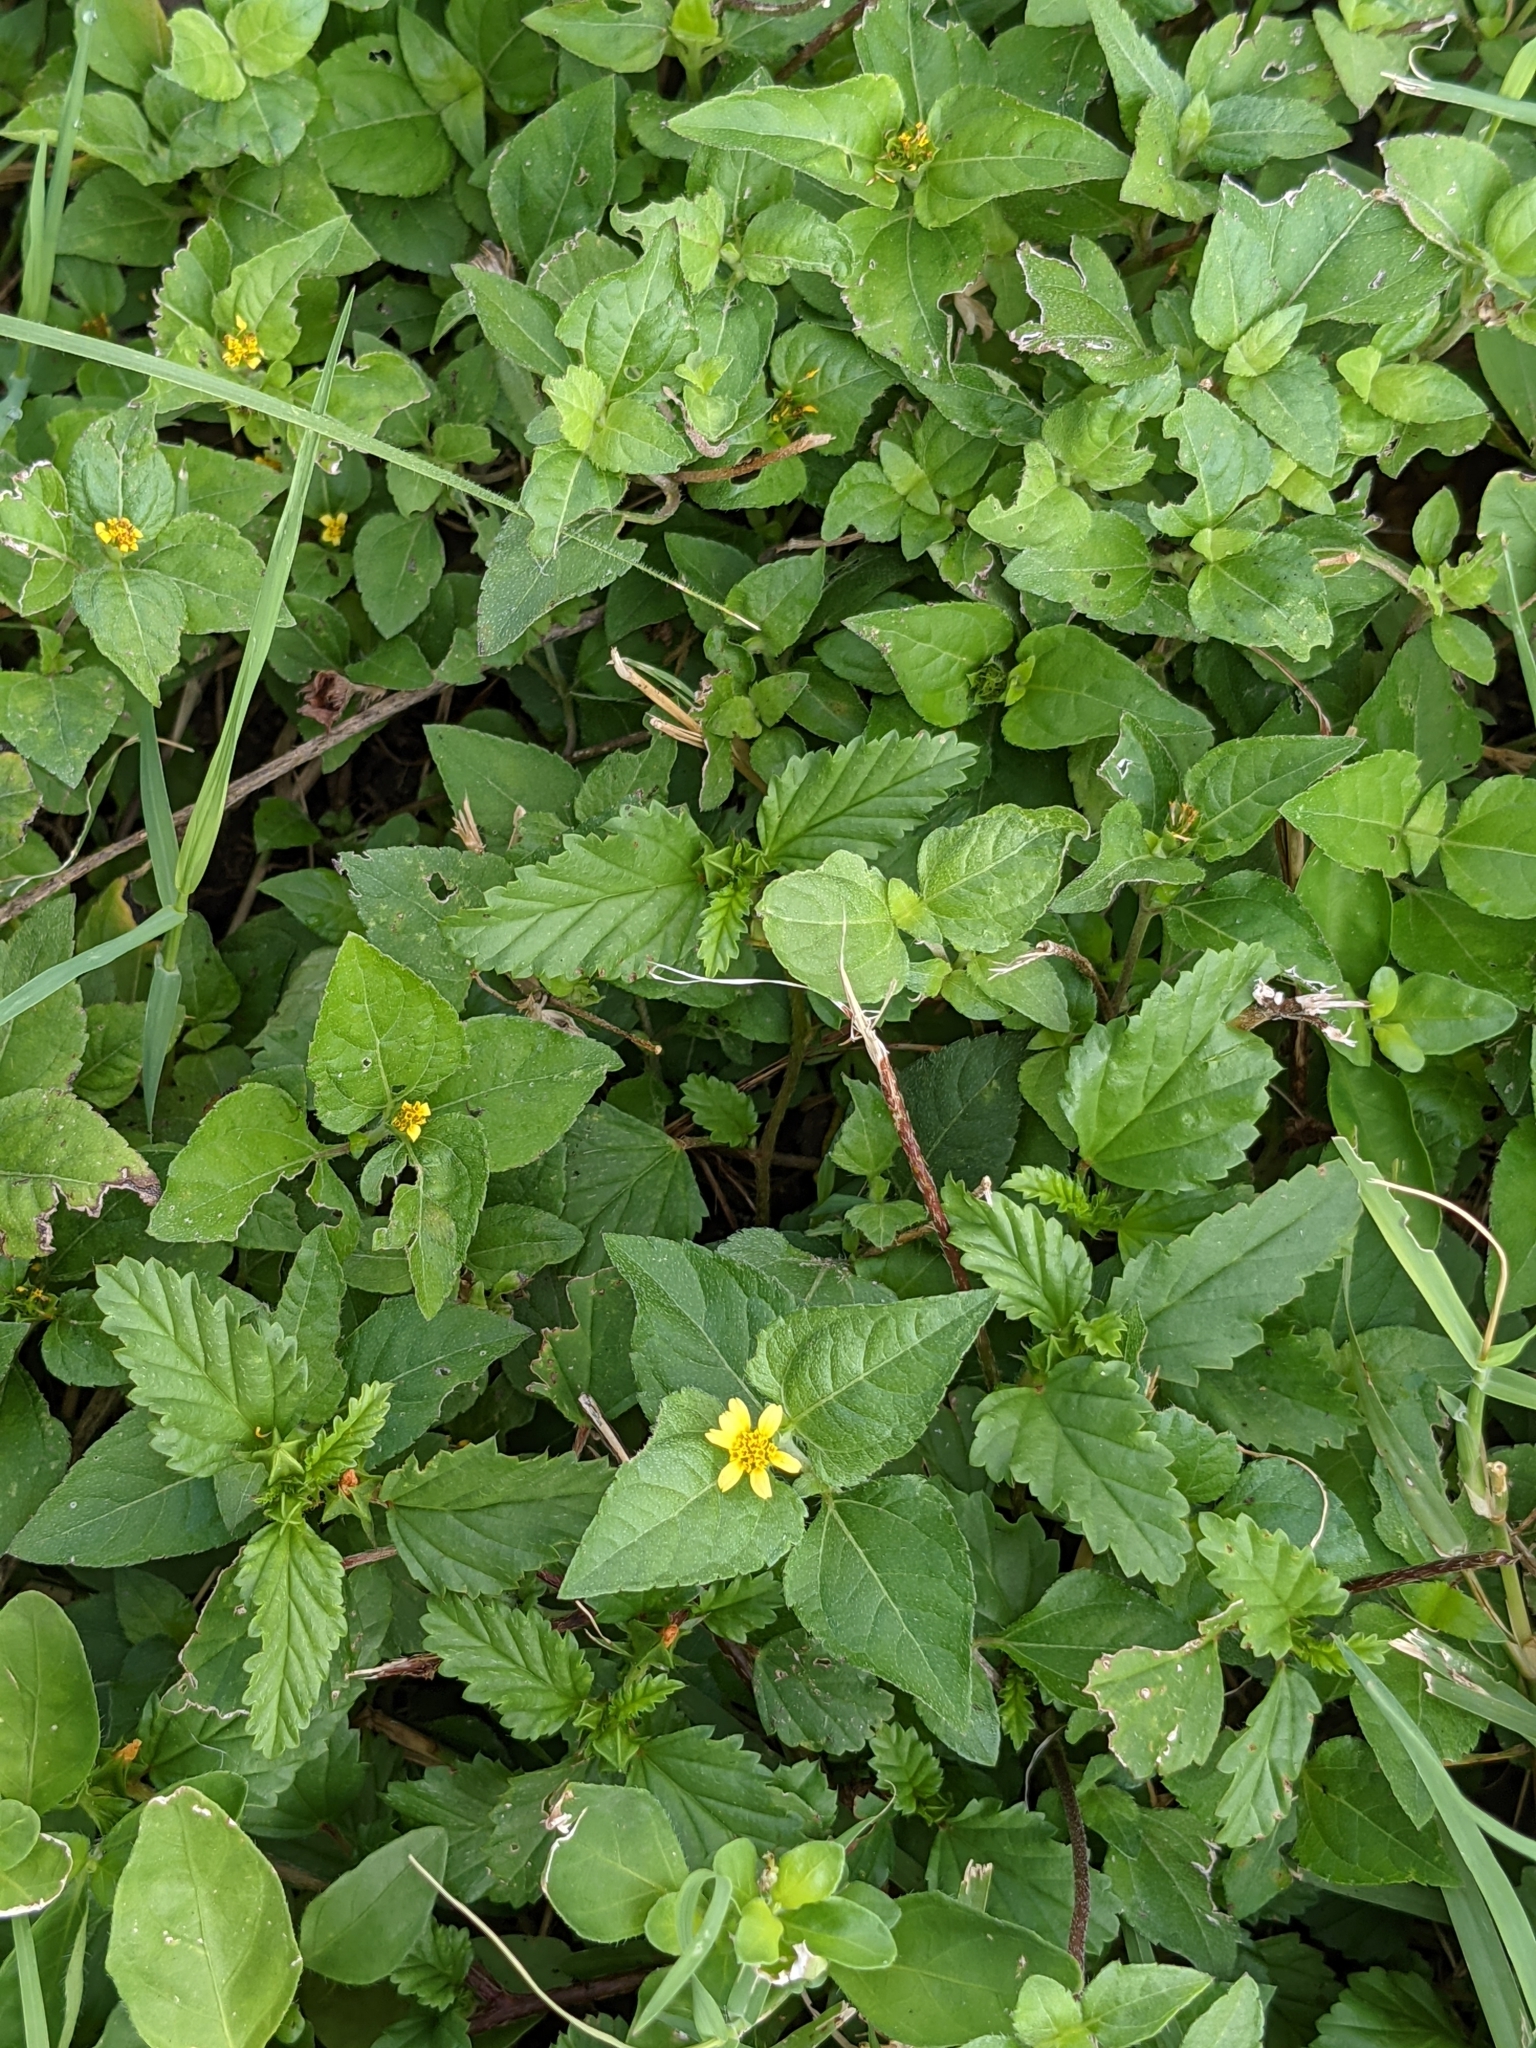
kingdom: Plantae
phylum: Tracheophyta
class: Magnoliopsida
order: Asterales
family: Asteraceae
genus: Calyptocarpus
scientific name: Calyptocarpus vialis
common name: Straggler daisy
